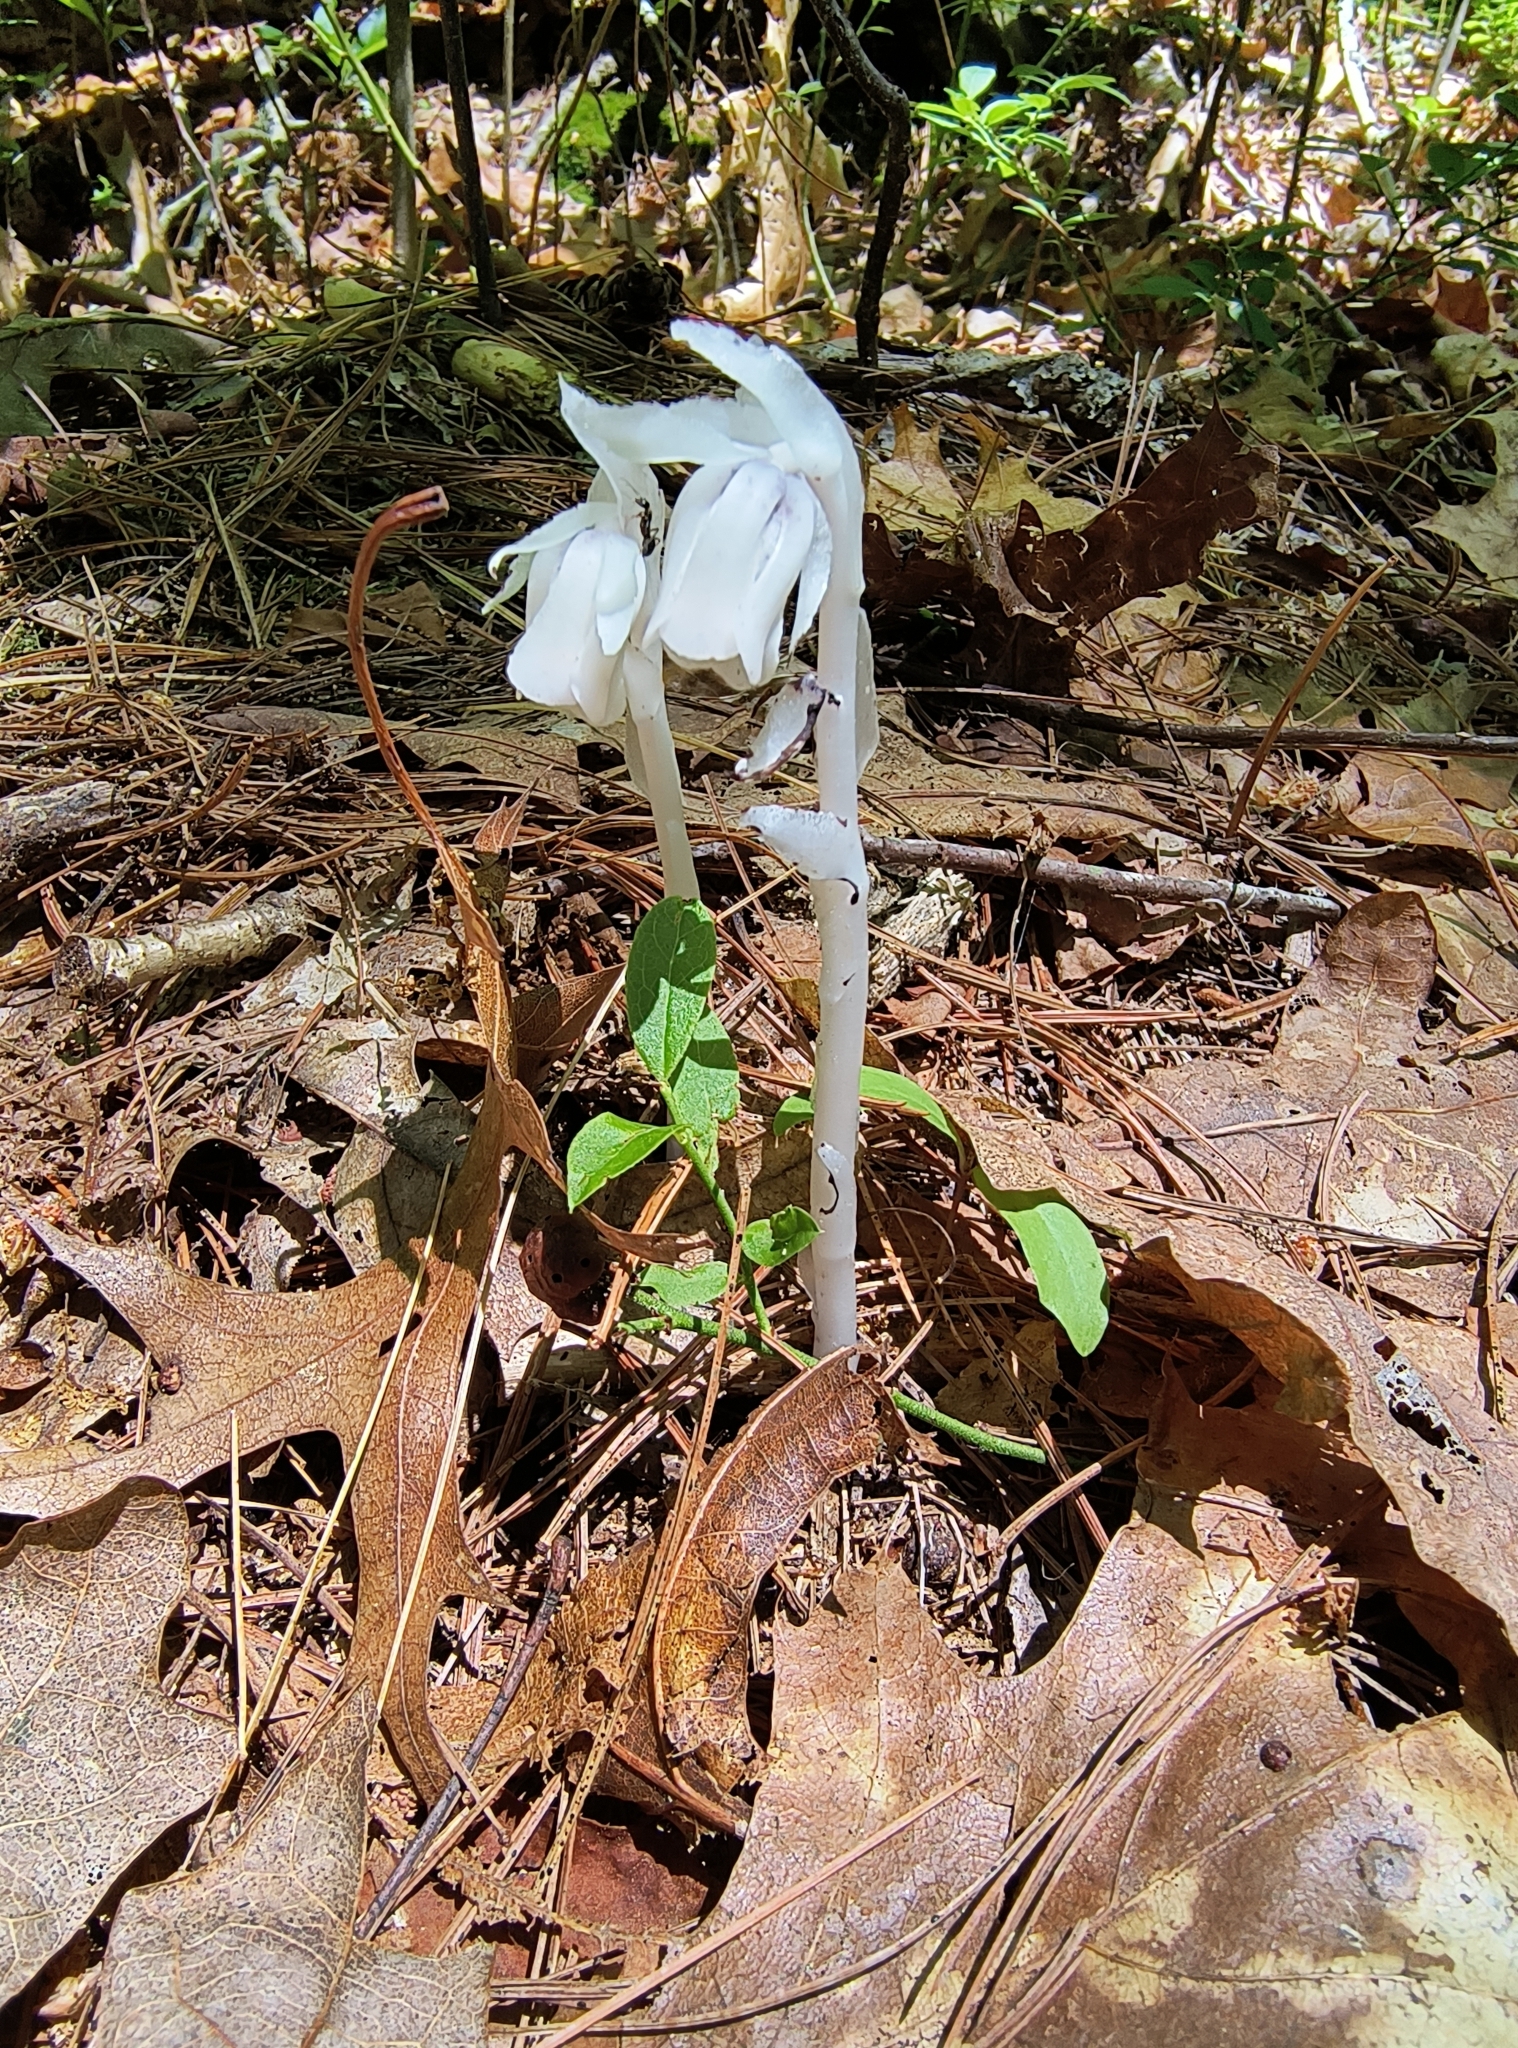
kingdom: Plantae
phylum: Tracheophyta
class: Magnoliopsida
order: Ericales
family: Ericaceae
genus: Monotropa
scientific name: Monotropa uniflora
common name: Convulsion root
